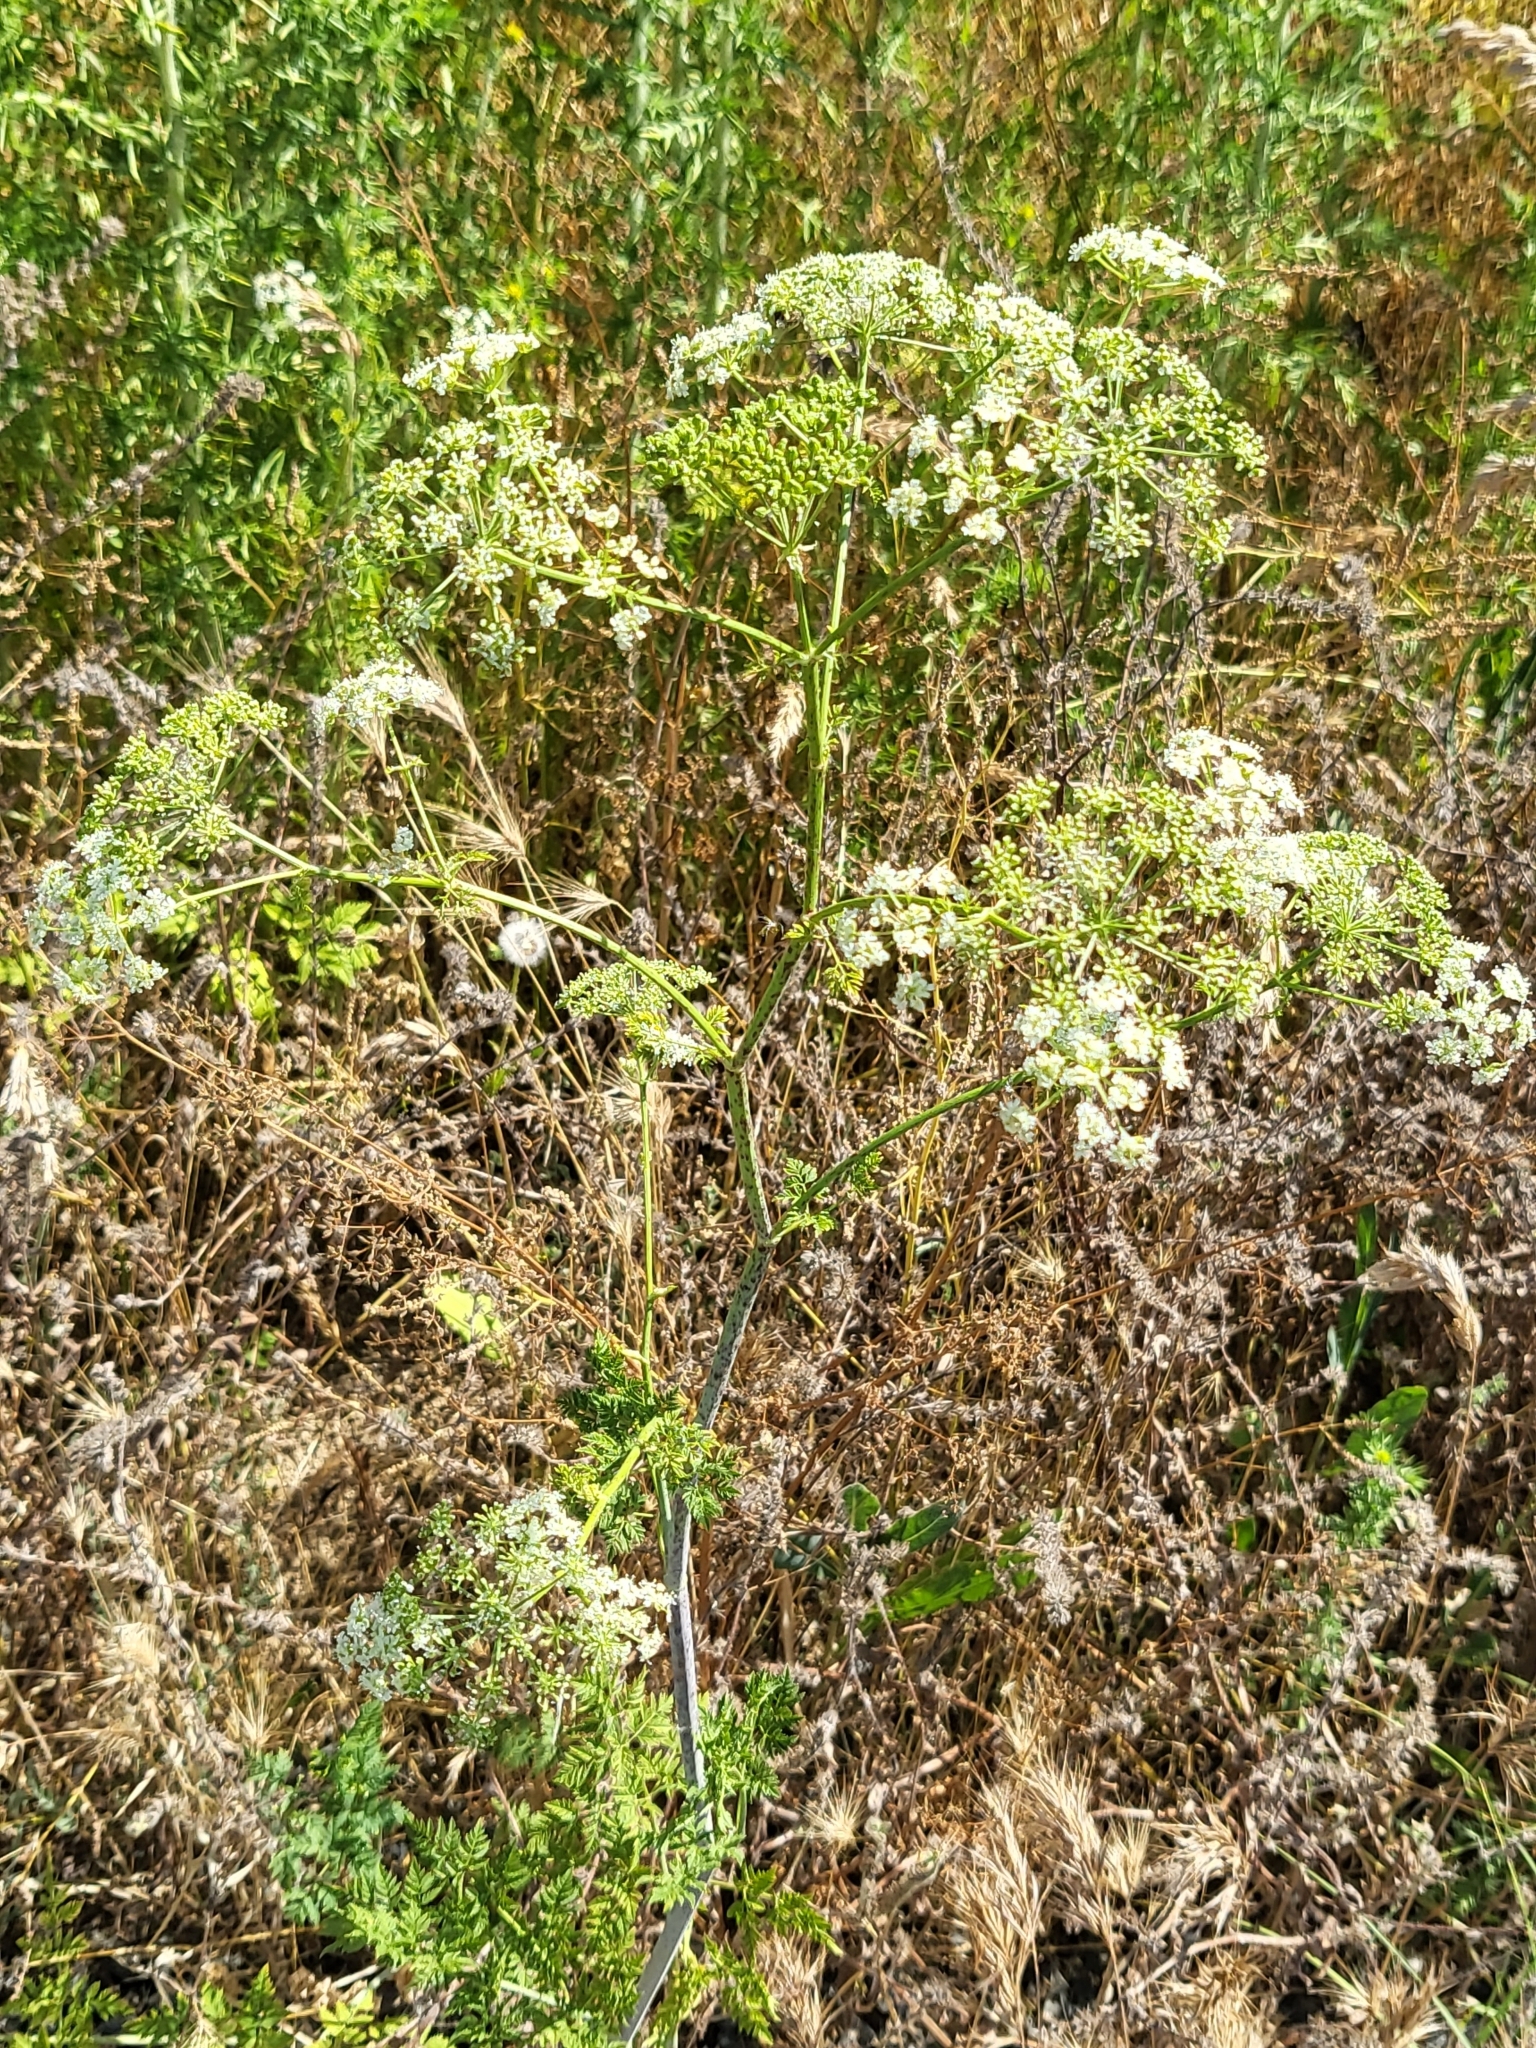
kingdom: Plantae
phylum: Tracheophyta
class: Magnoliopsida
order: Apiales
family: Apiaceae
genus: Conium
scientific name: Conium maculatum
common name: Hemlock
